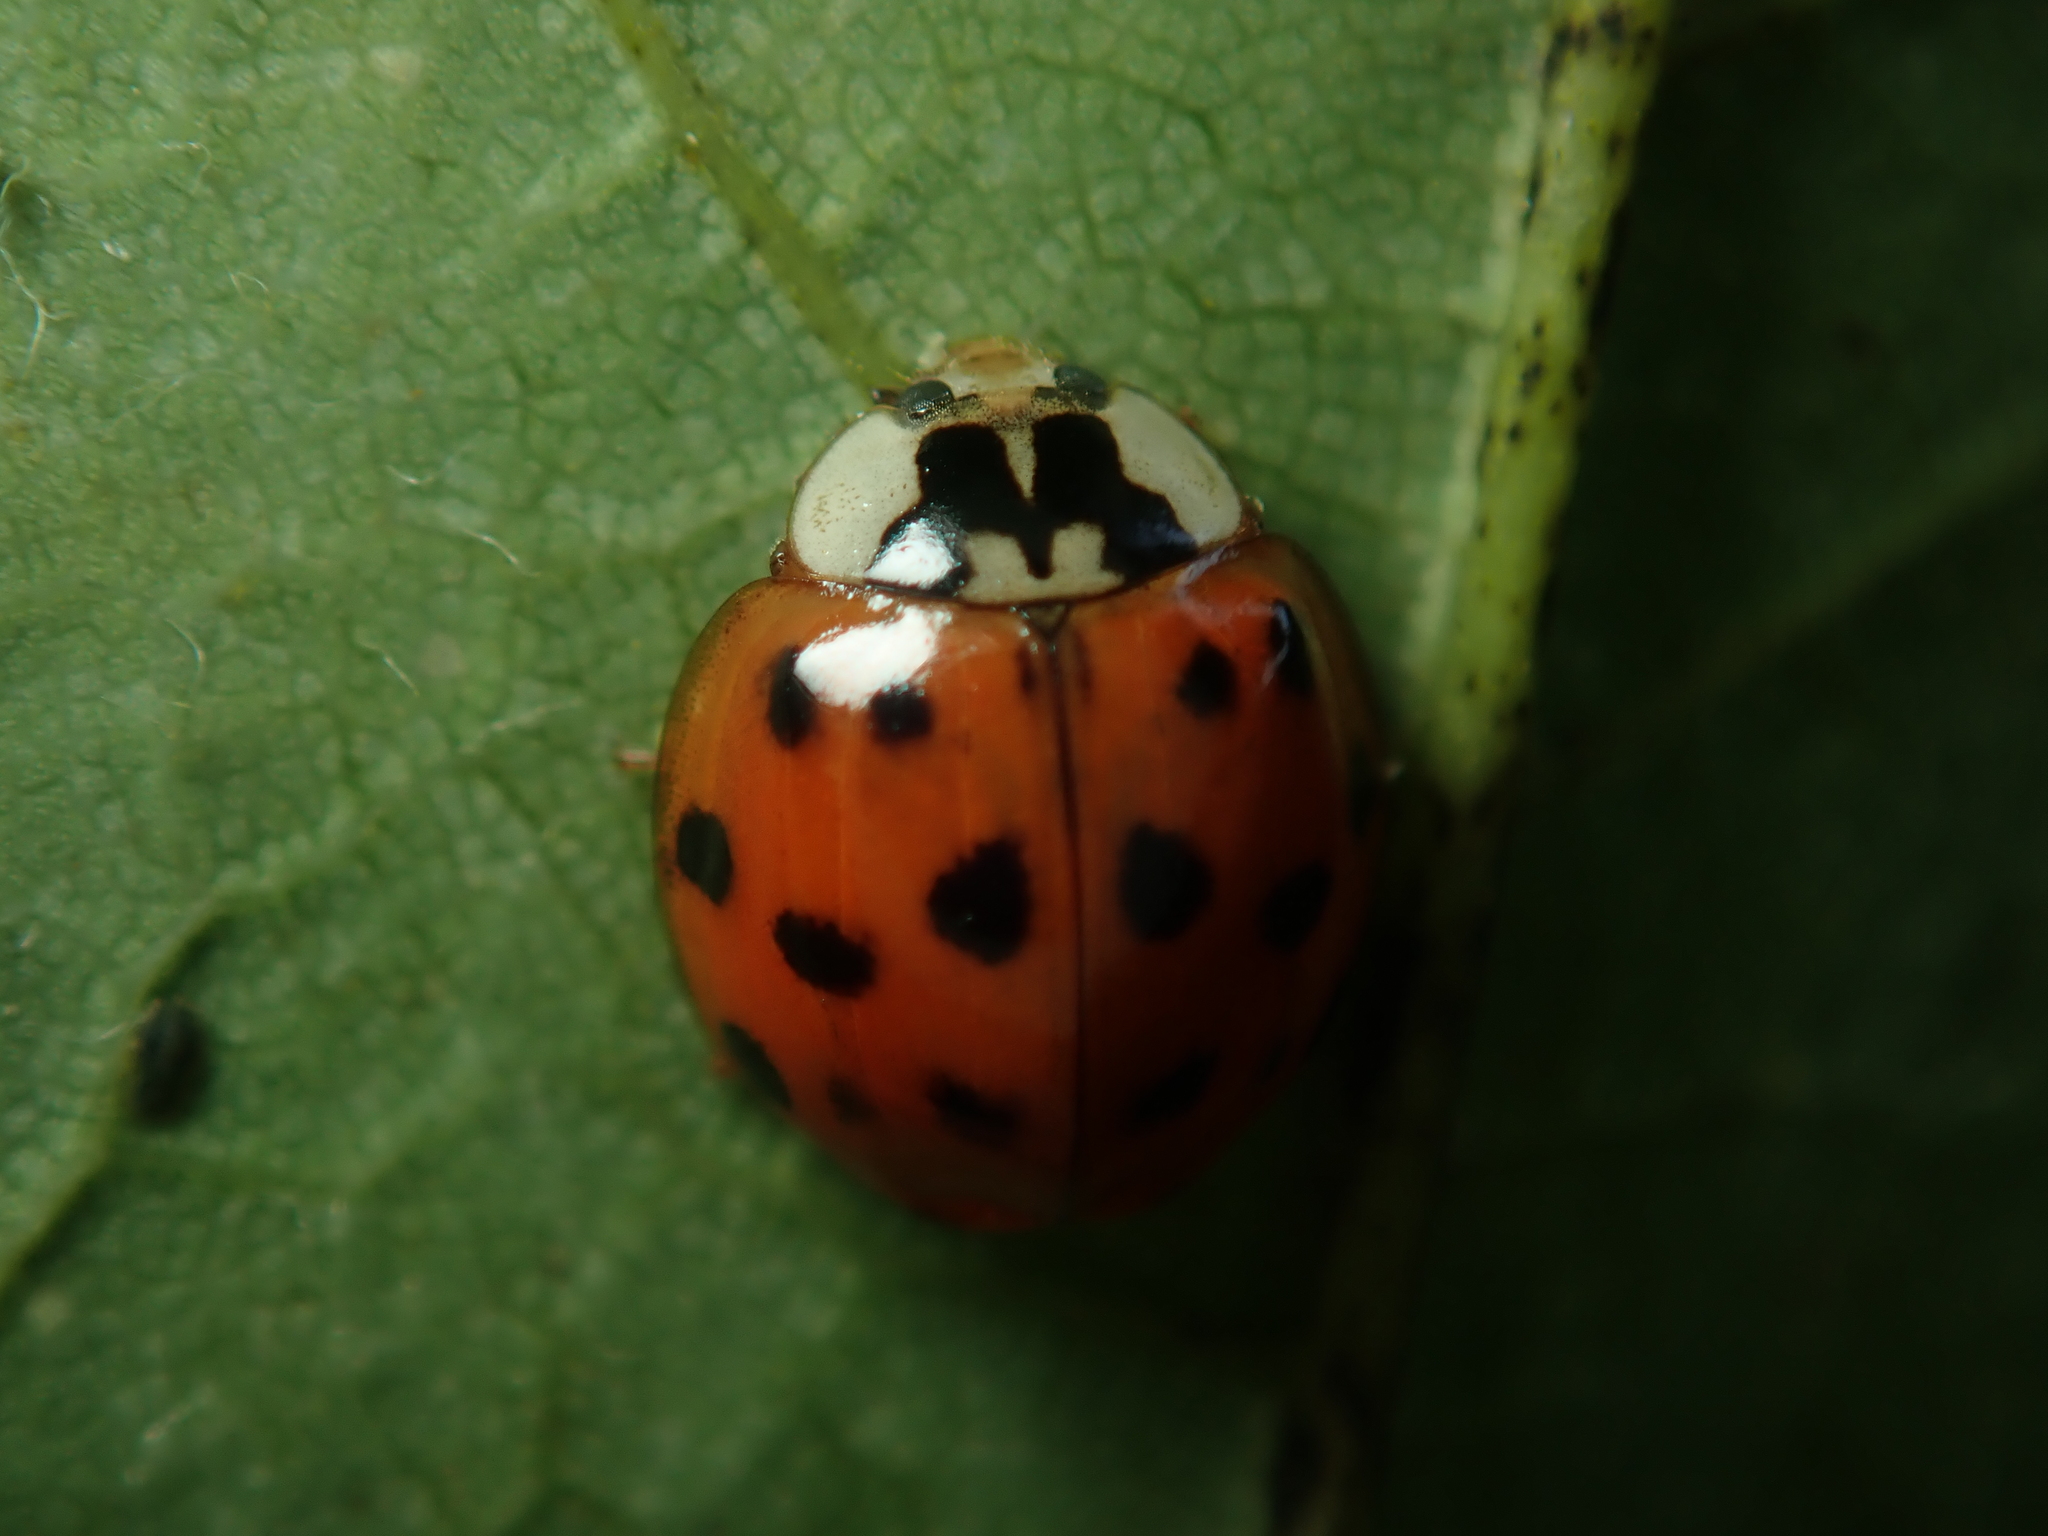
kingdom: Animalia
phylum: Arthropoda
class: Insecta
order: Coleoptera
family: Coccinellidae
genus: Harmonia
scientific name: Harmonia axyridis
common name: Harlequin ladybird
